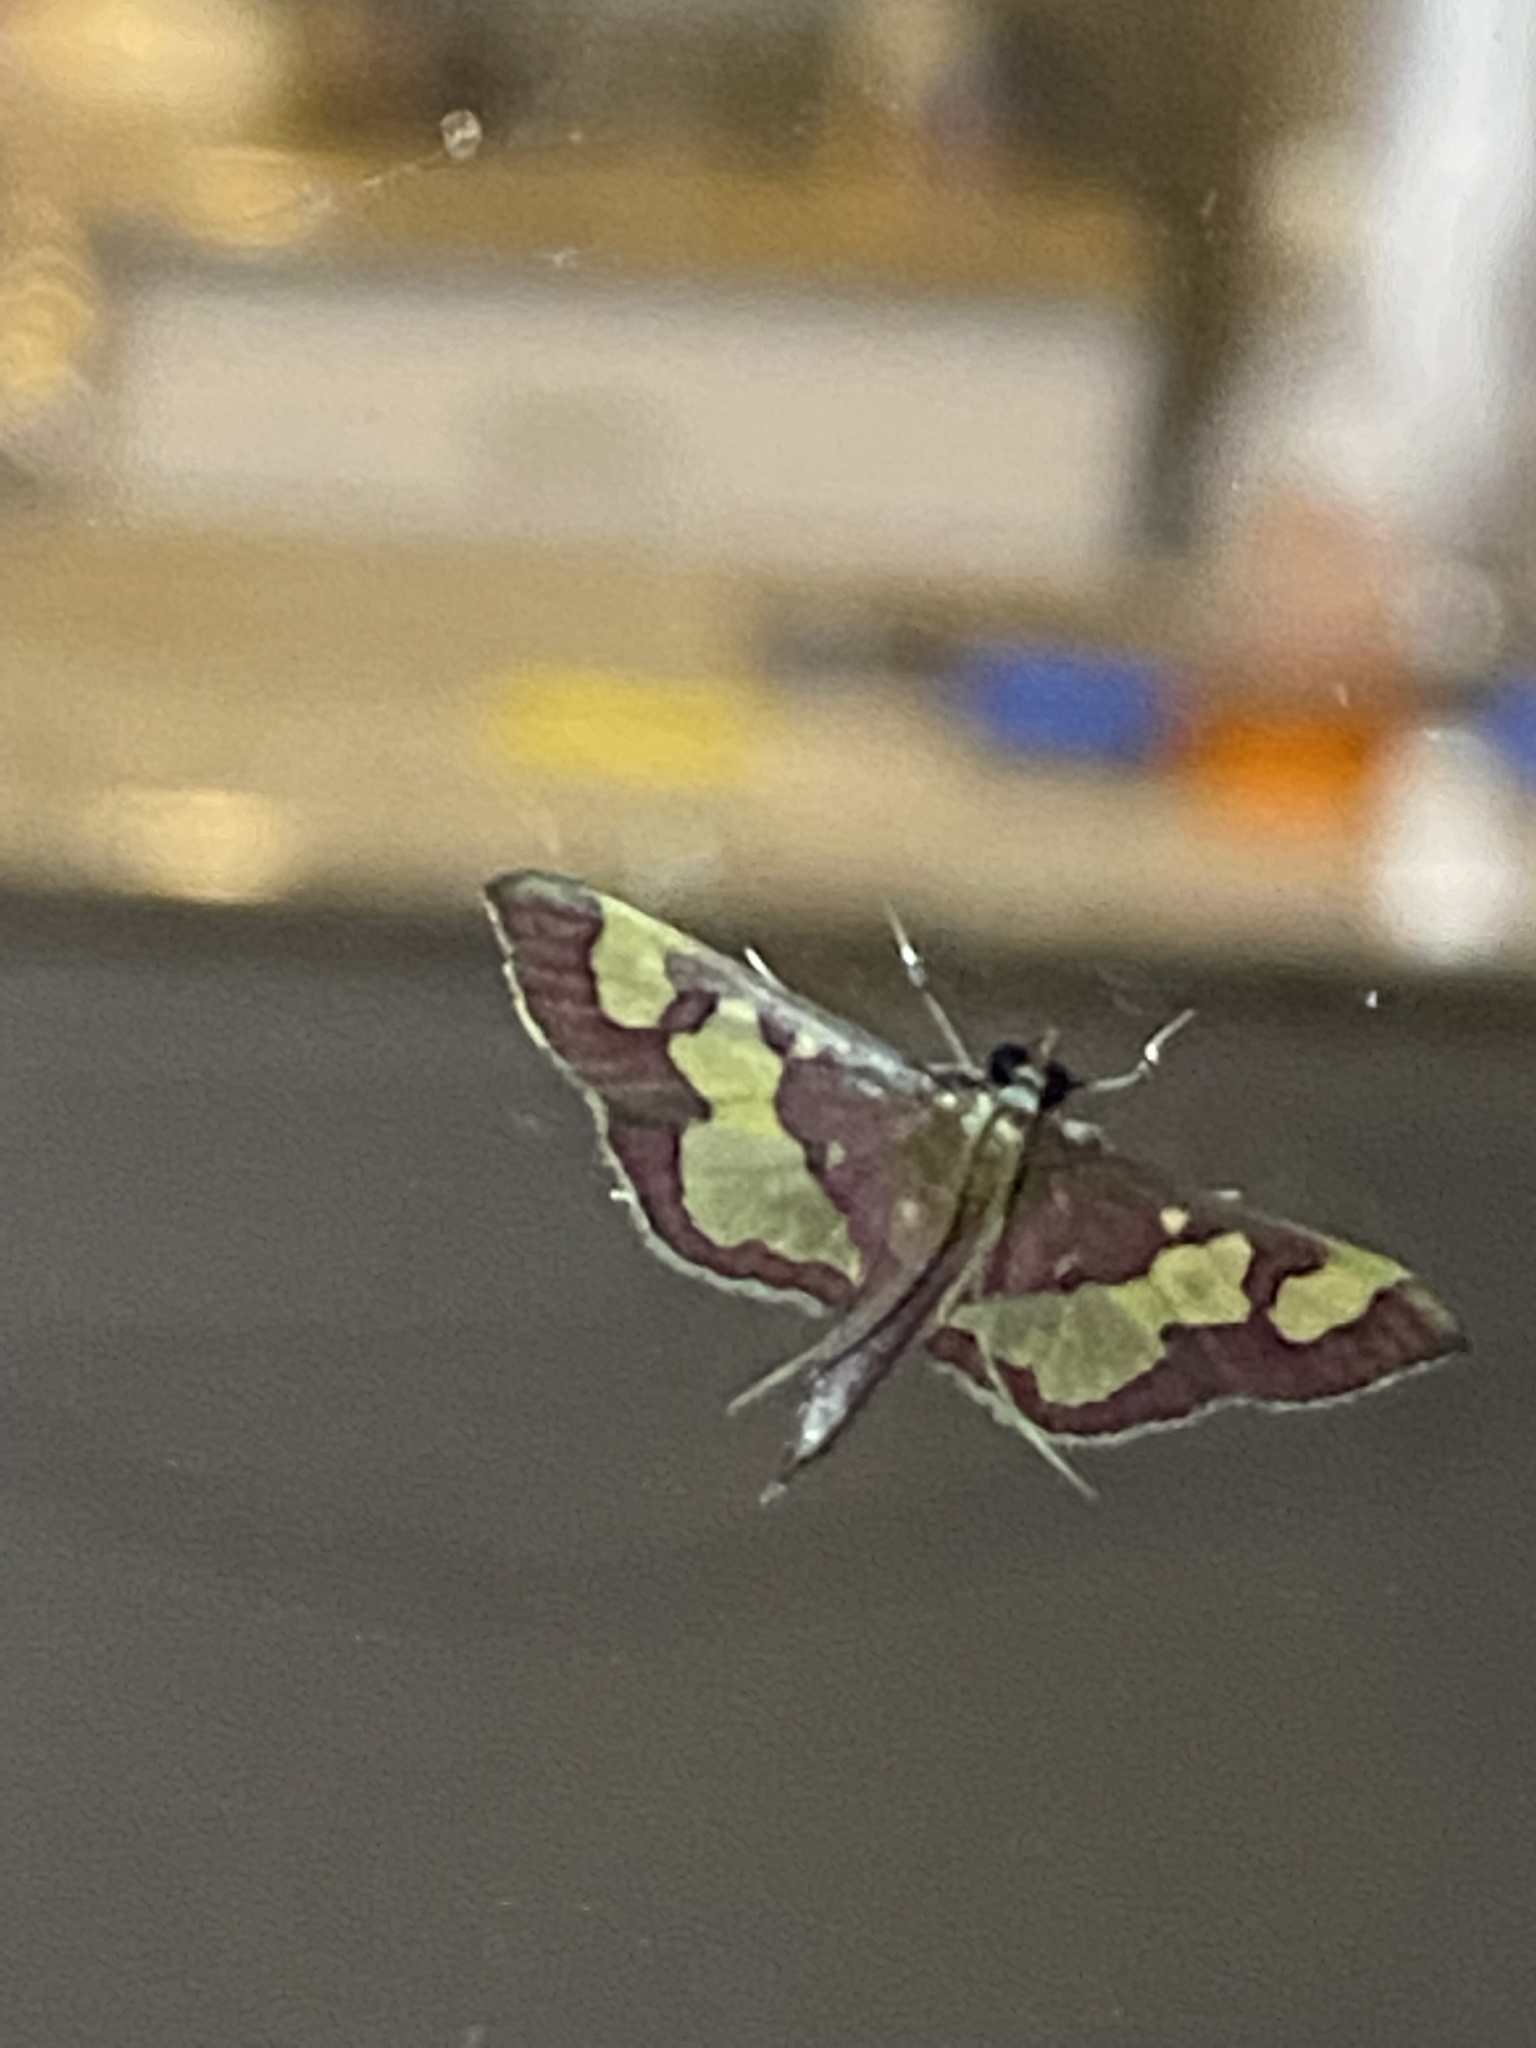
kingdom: Animalia
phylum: Arthropoda
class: Insecta
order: Lepidoptera
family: Crambidae
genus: Colomychus
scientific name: Colomychus talis
